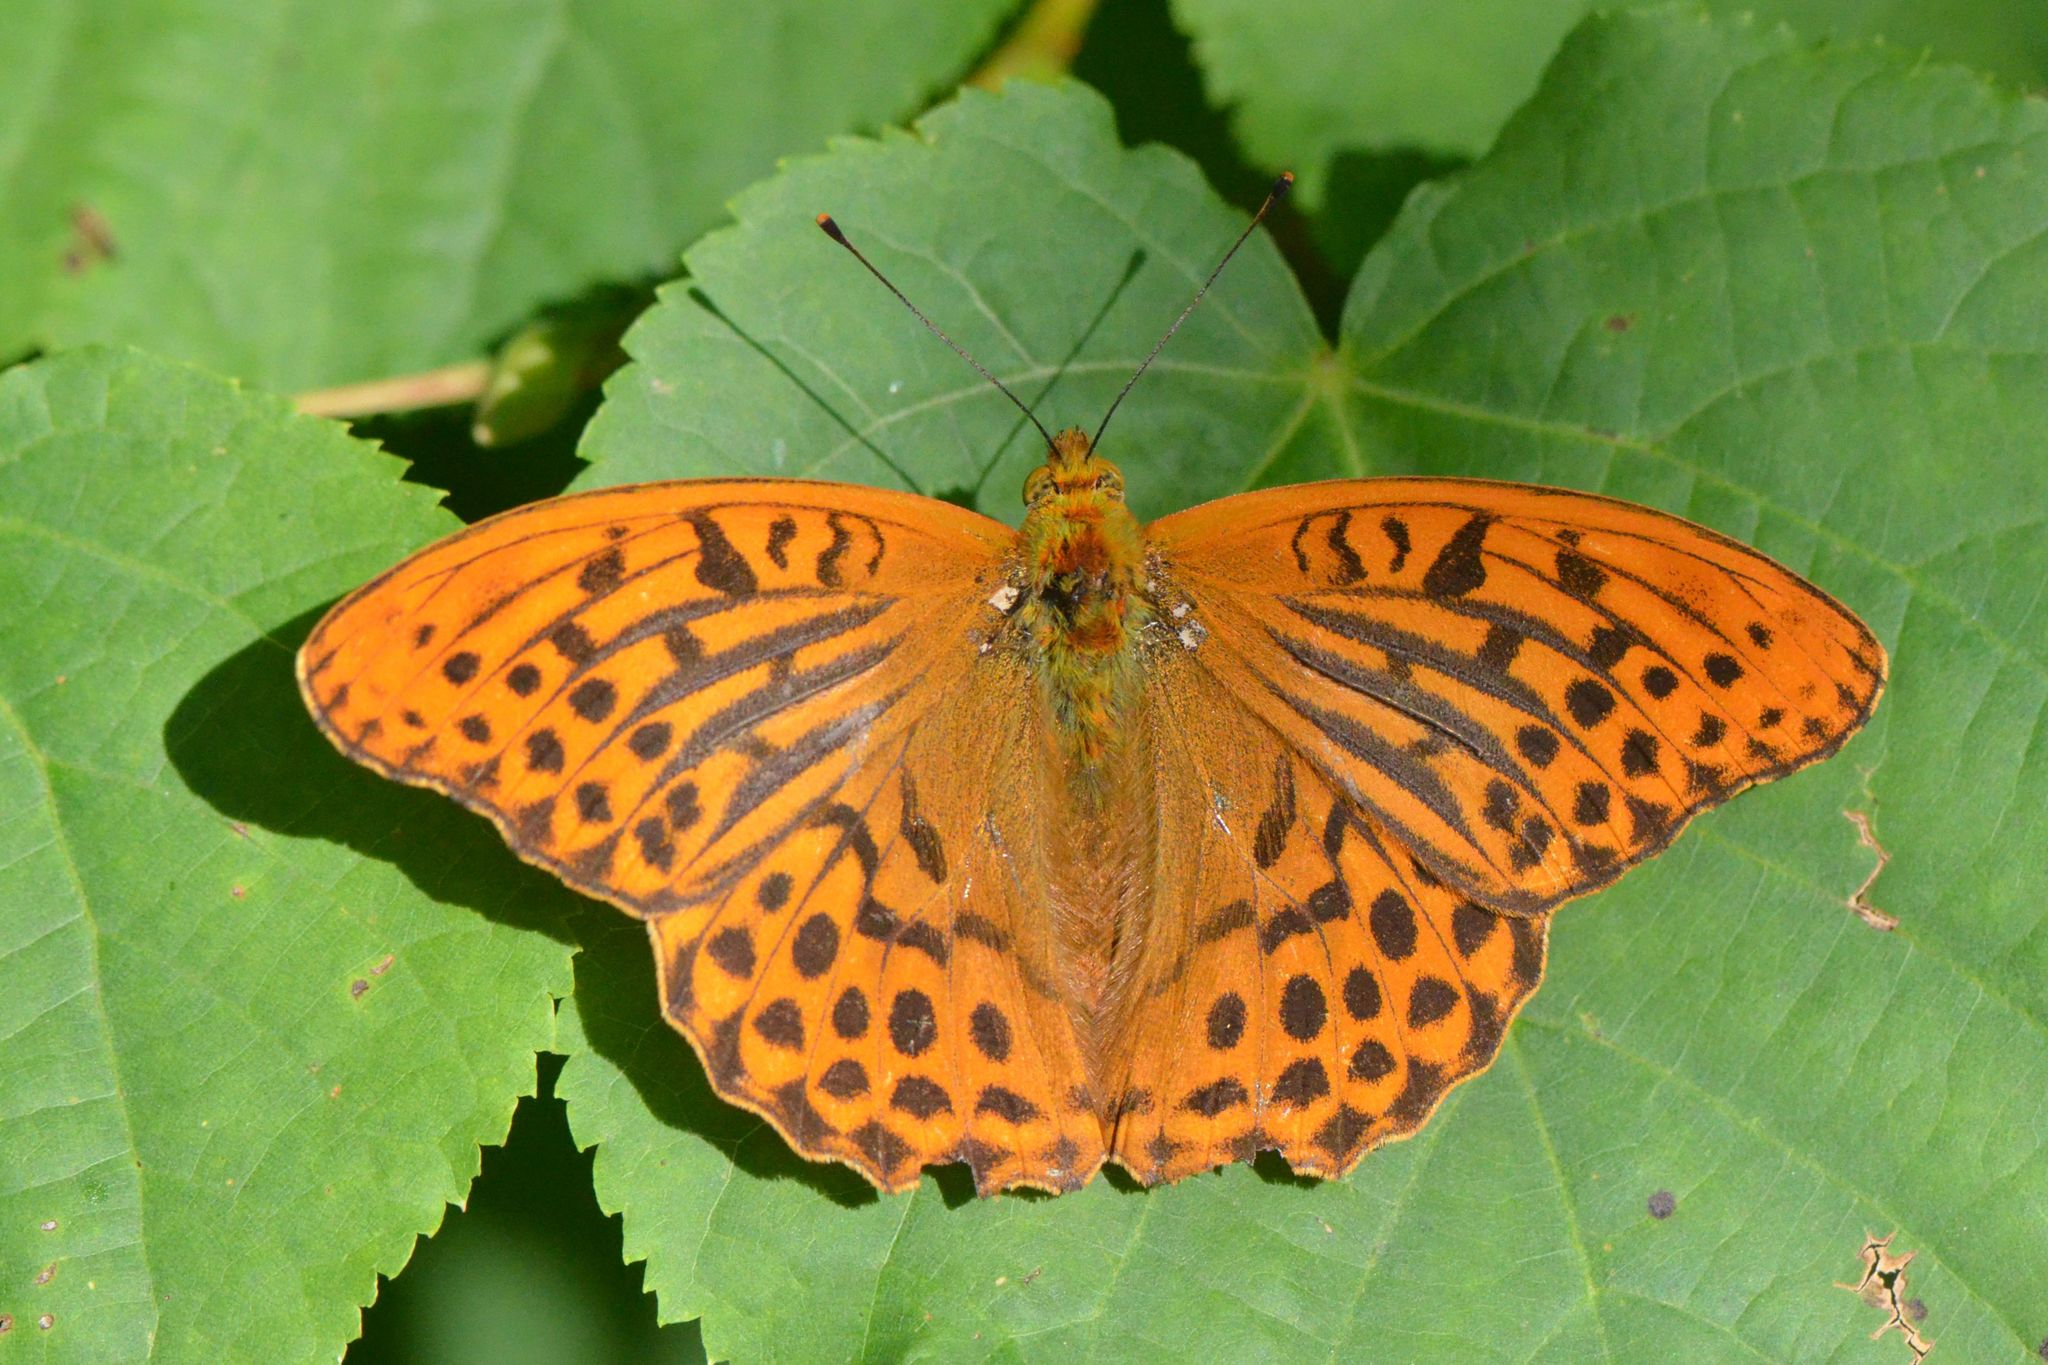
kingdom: Animalia
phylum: Arthropoda
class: Insecta
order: Lepidoptera
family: Nymphalidae
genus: Argynnis
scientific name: Argynnis paphia
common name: Silver-washed fritillary
